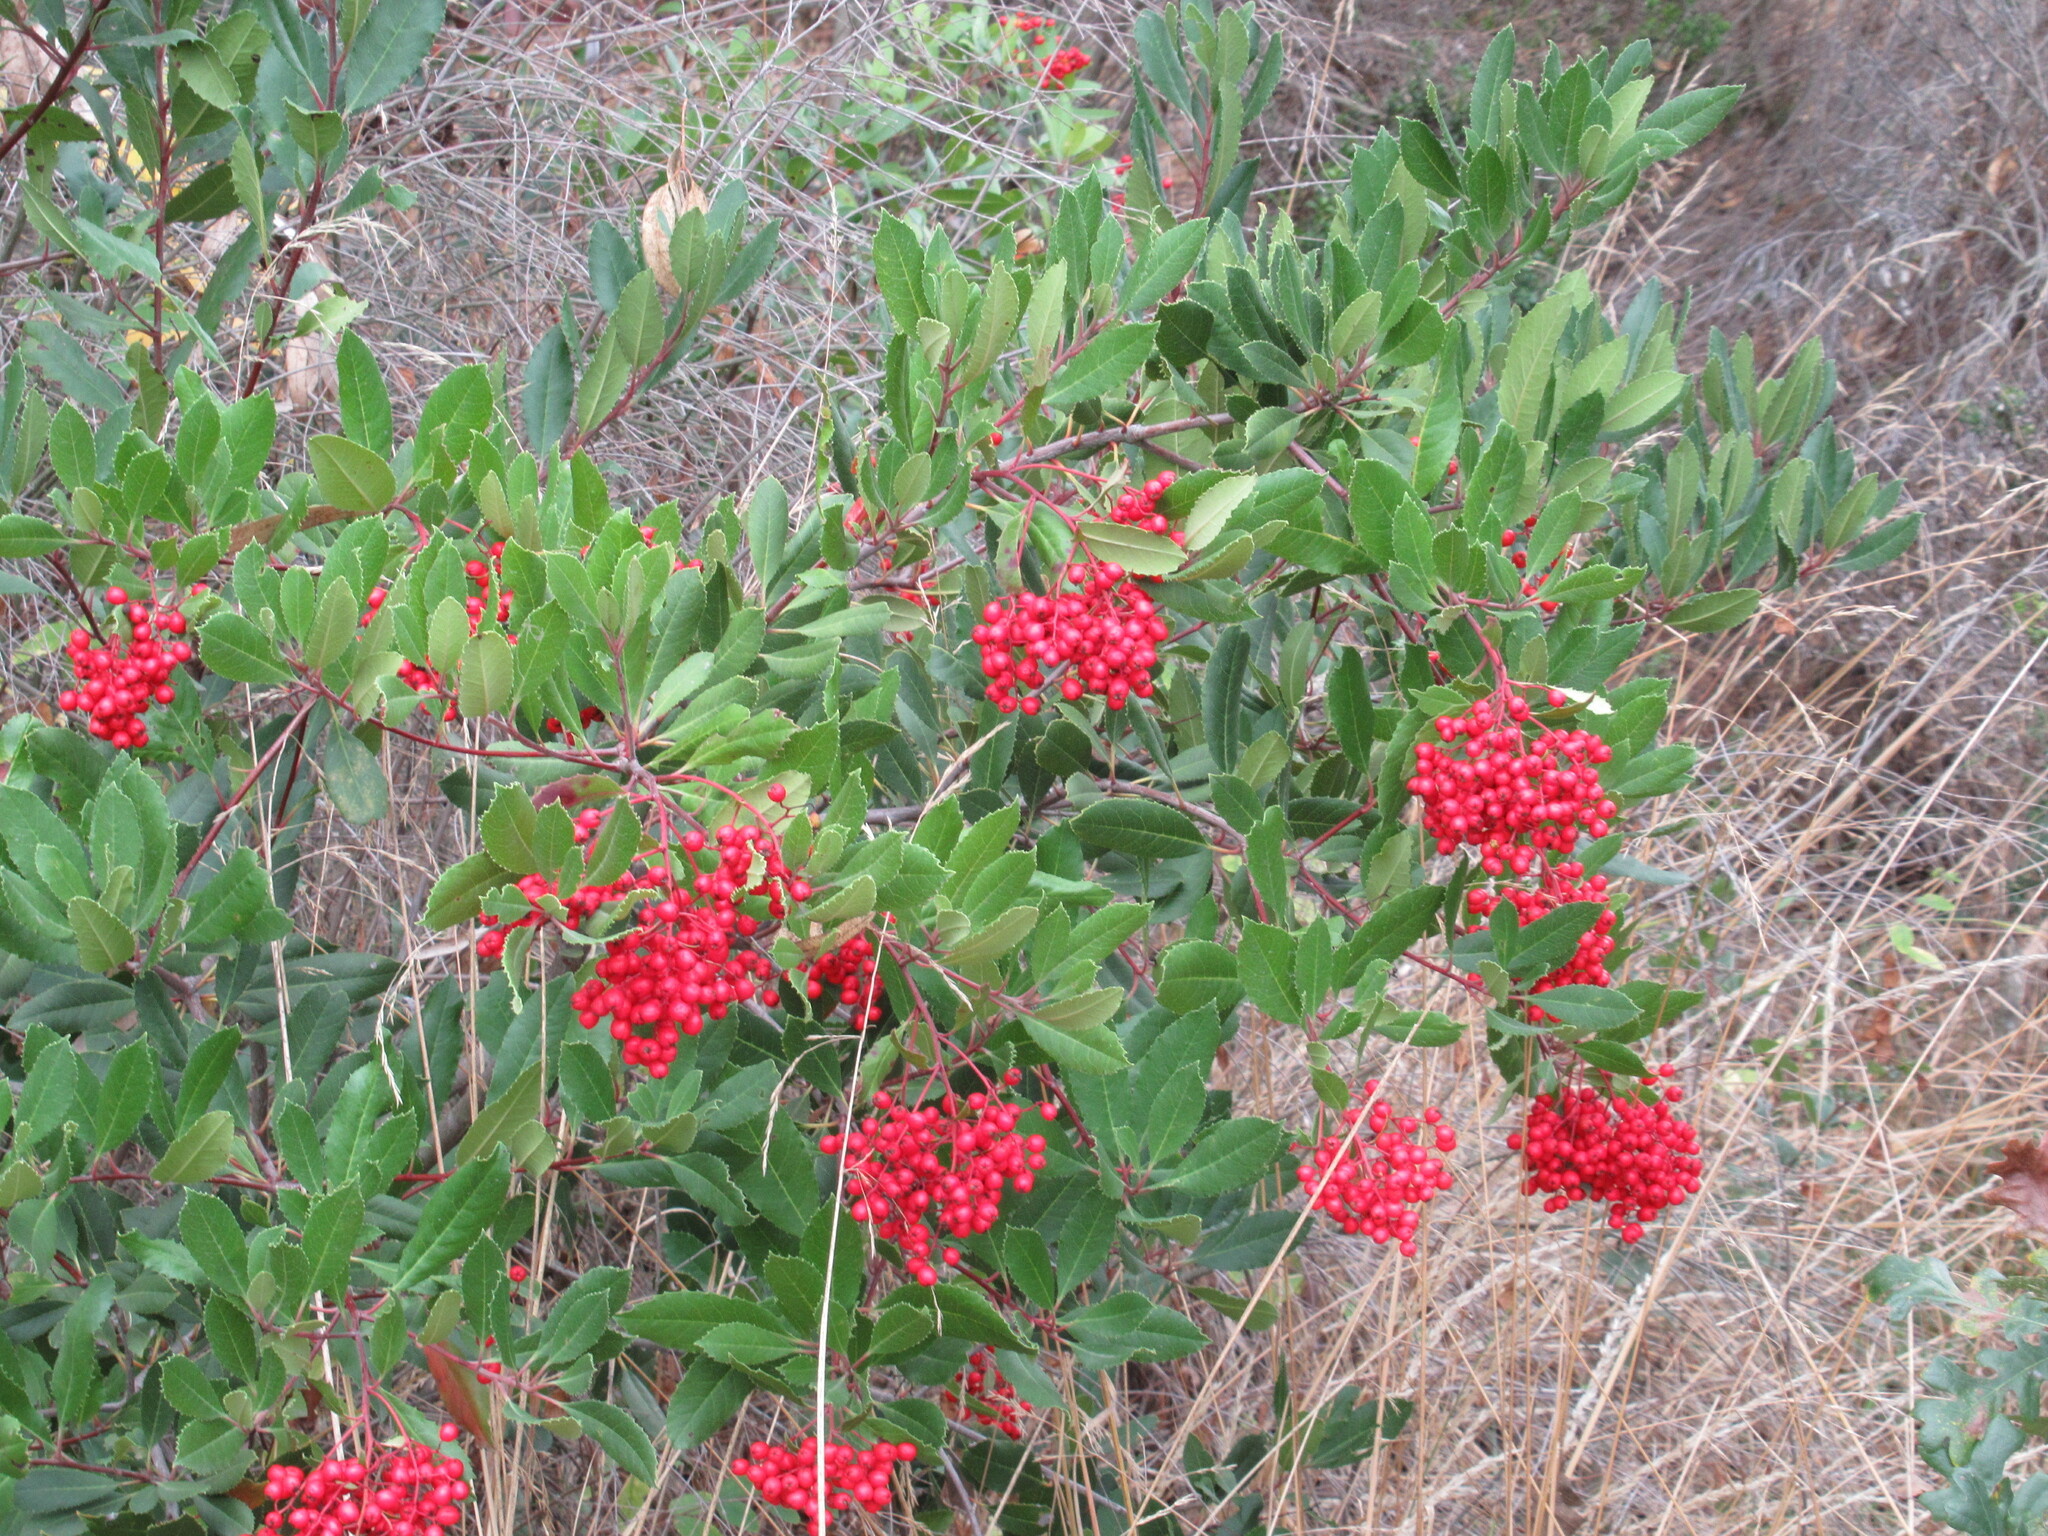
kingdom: Plantae
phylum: Tracheophyta
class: Magnoliopsida
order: Rosales
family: Rosaceae
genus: Heteromeles
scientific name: Heteromeles arbutifolia
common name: California-holly
